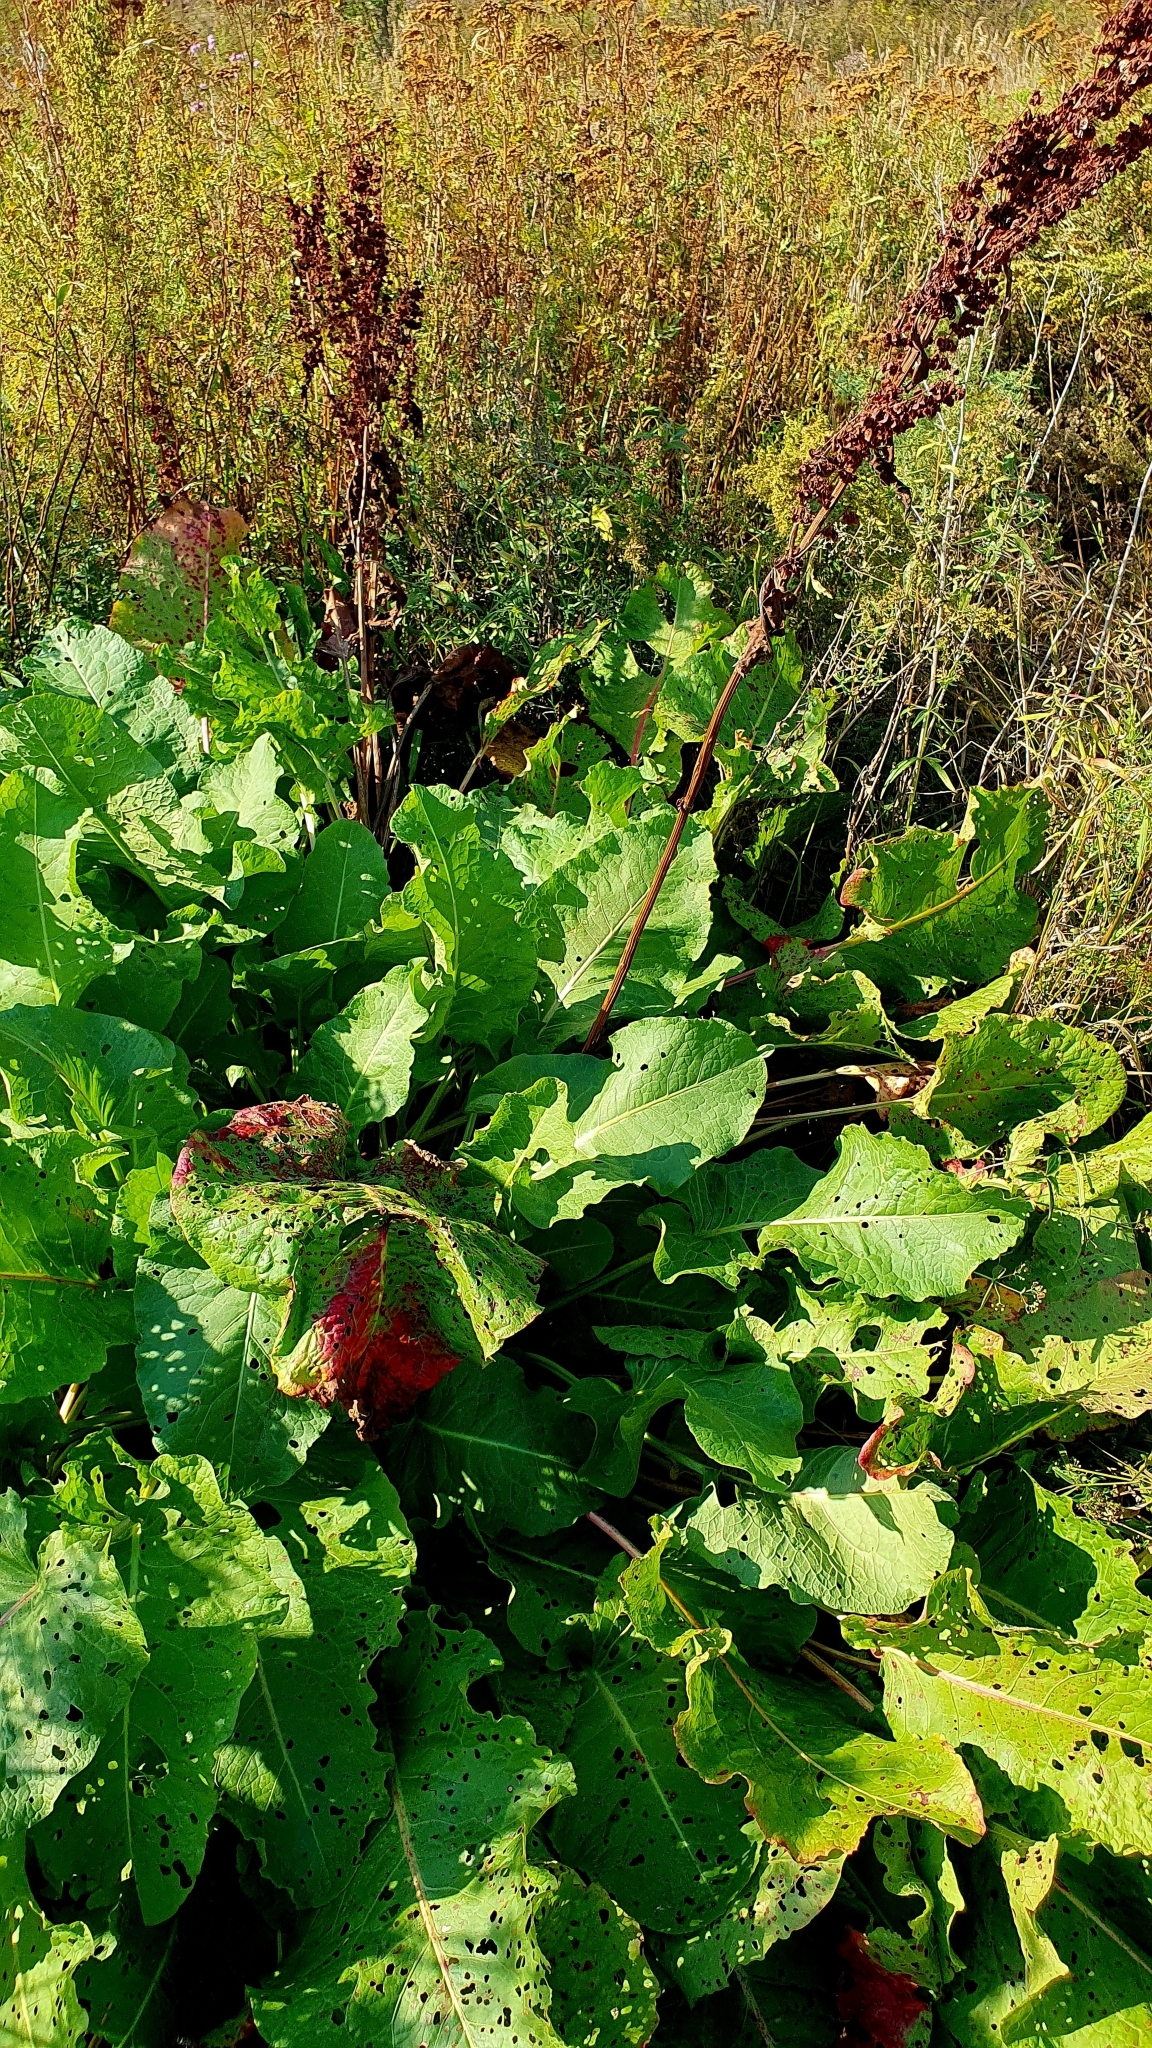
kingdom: Plantae
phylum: Tracheophyta
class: Magnoliopsida
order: Caryophyllales
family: Polygonaceae
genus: Rumex
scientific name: Rumex confertus
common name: Russian dock
